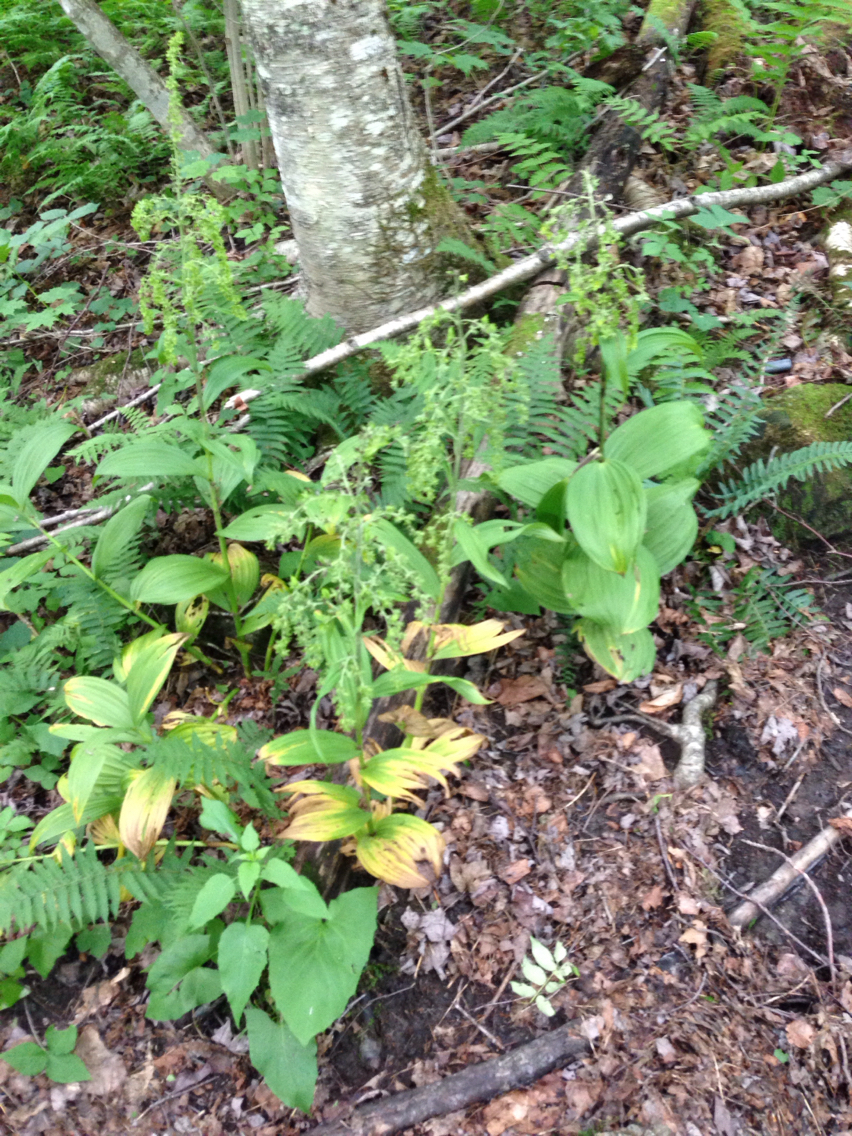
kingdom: Plantae
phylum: Tracheophyta
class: Liliopsida
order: Liliales
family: Melanthiaceae
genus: Veratrum
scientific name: Veratrum viride
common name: American false hellebore
